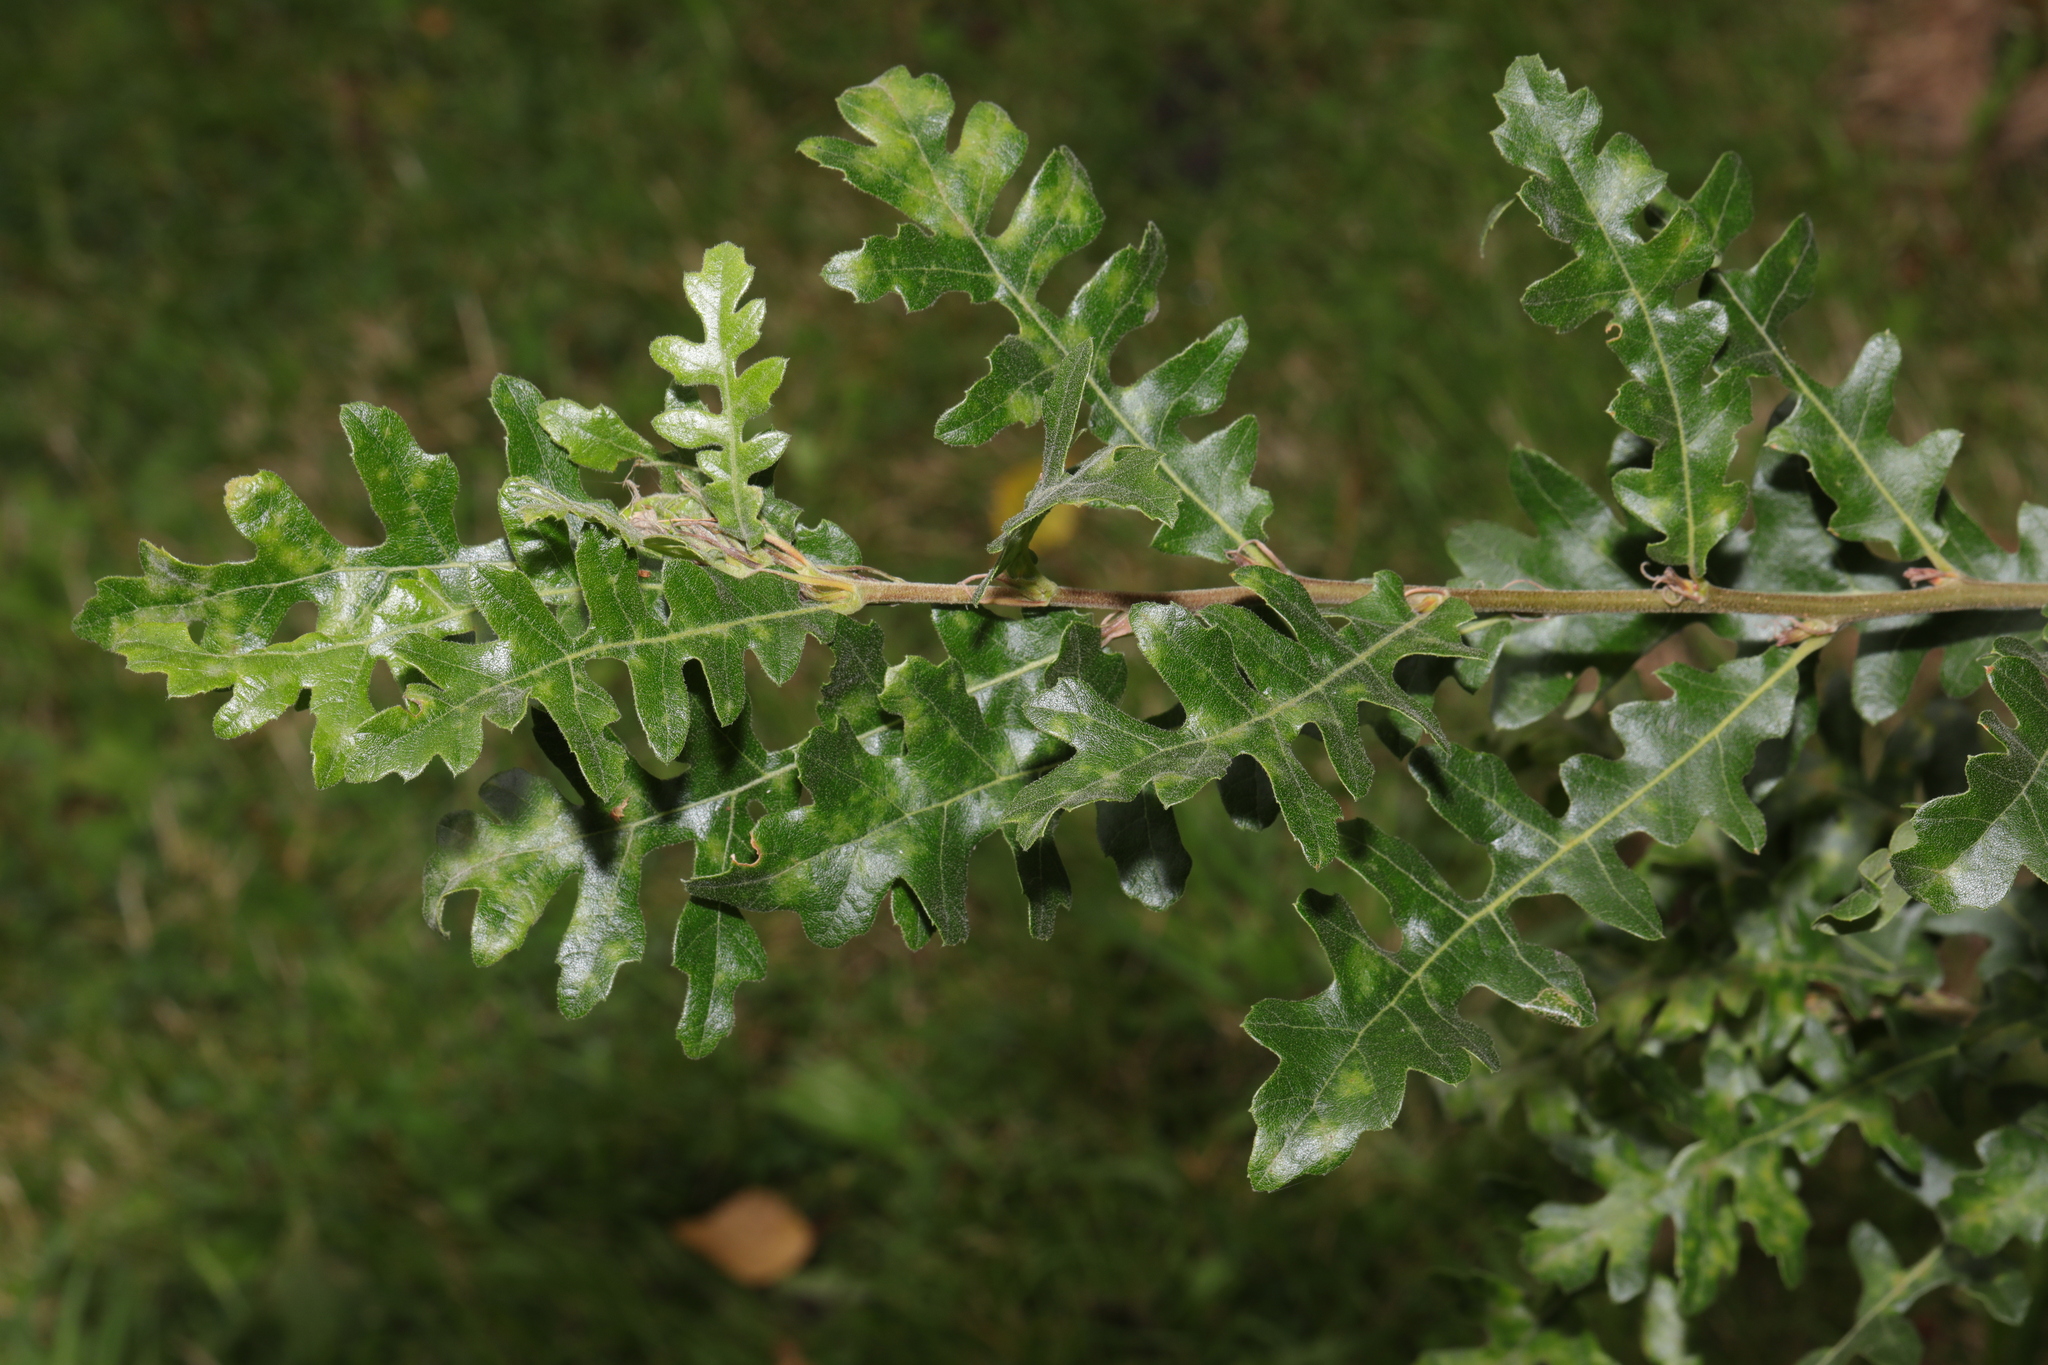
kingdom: Plantae
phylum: Tracheophyta
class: Magnoliopsida
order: Fagales
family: Fagaceae
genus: Quercus
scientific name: Quercus cerris
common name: Turkey oak
